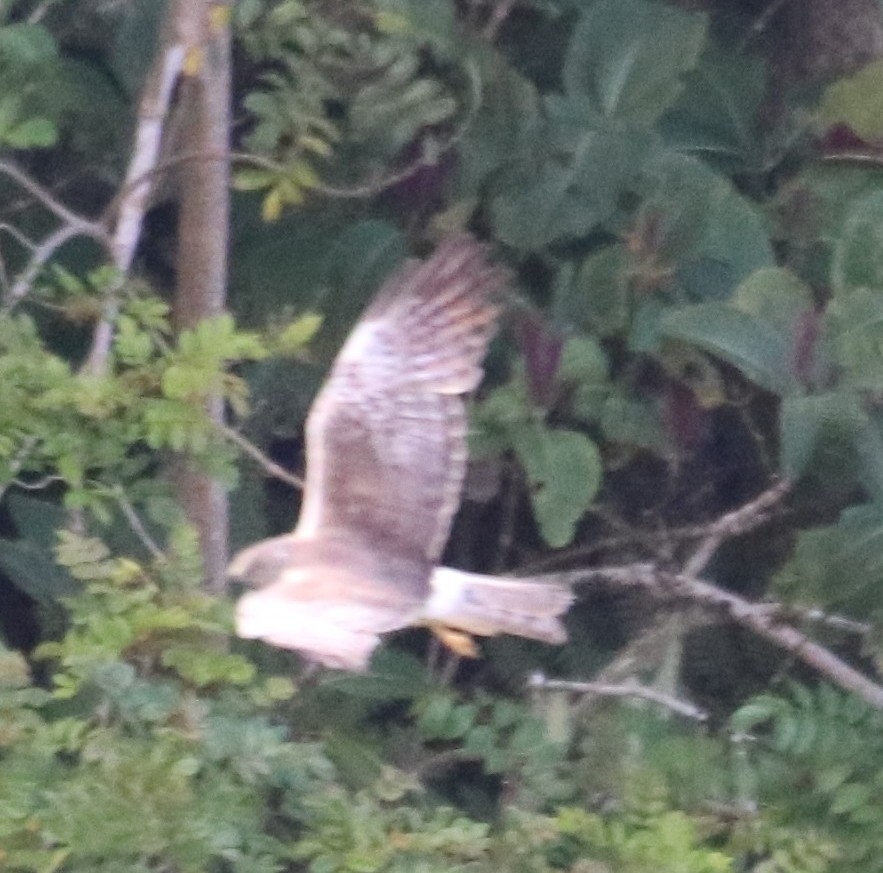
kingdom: Animalia
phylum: Chordata
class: Aves
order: Accipitriformes
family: Accipitridae
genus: Circus
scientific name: Circus approximans
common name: Swamp harrier
